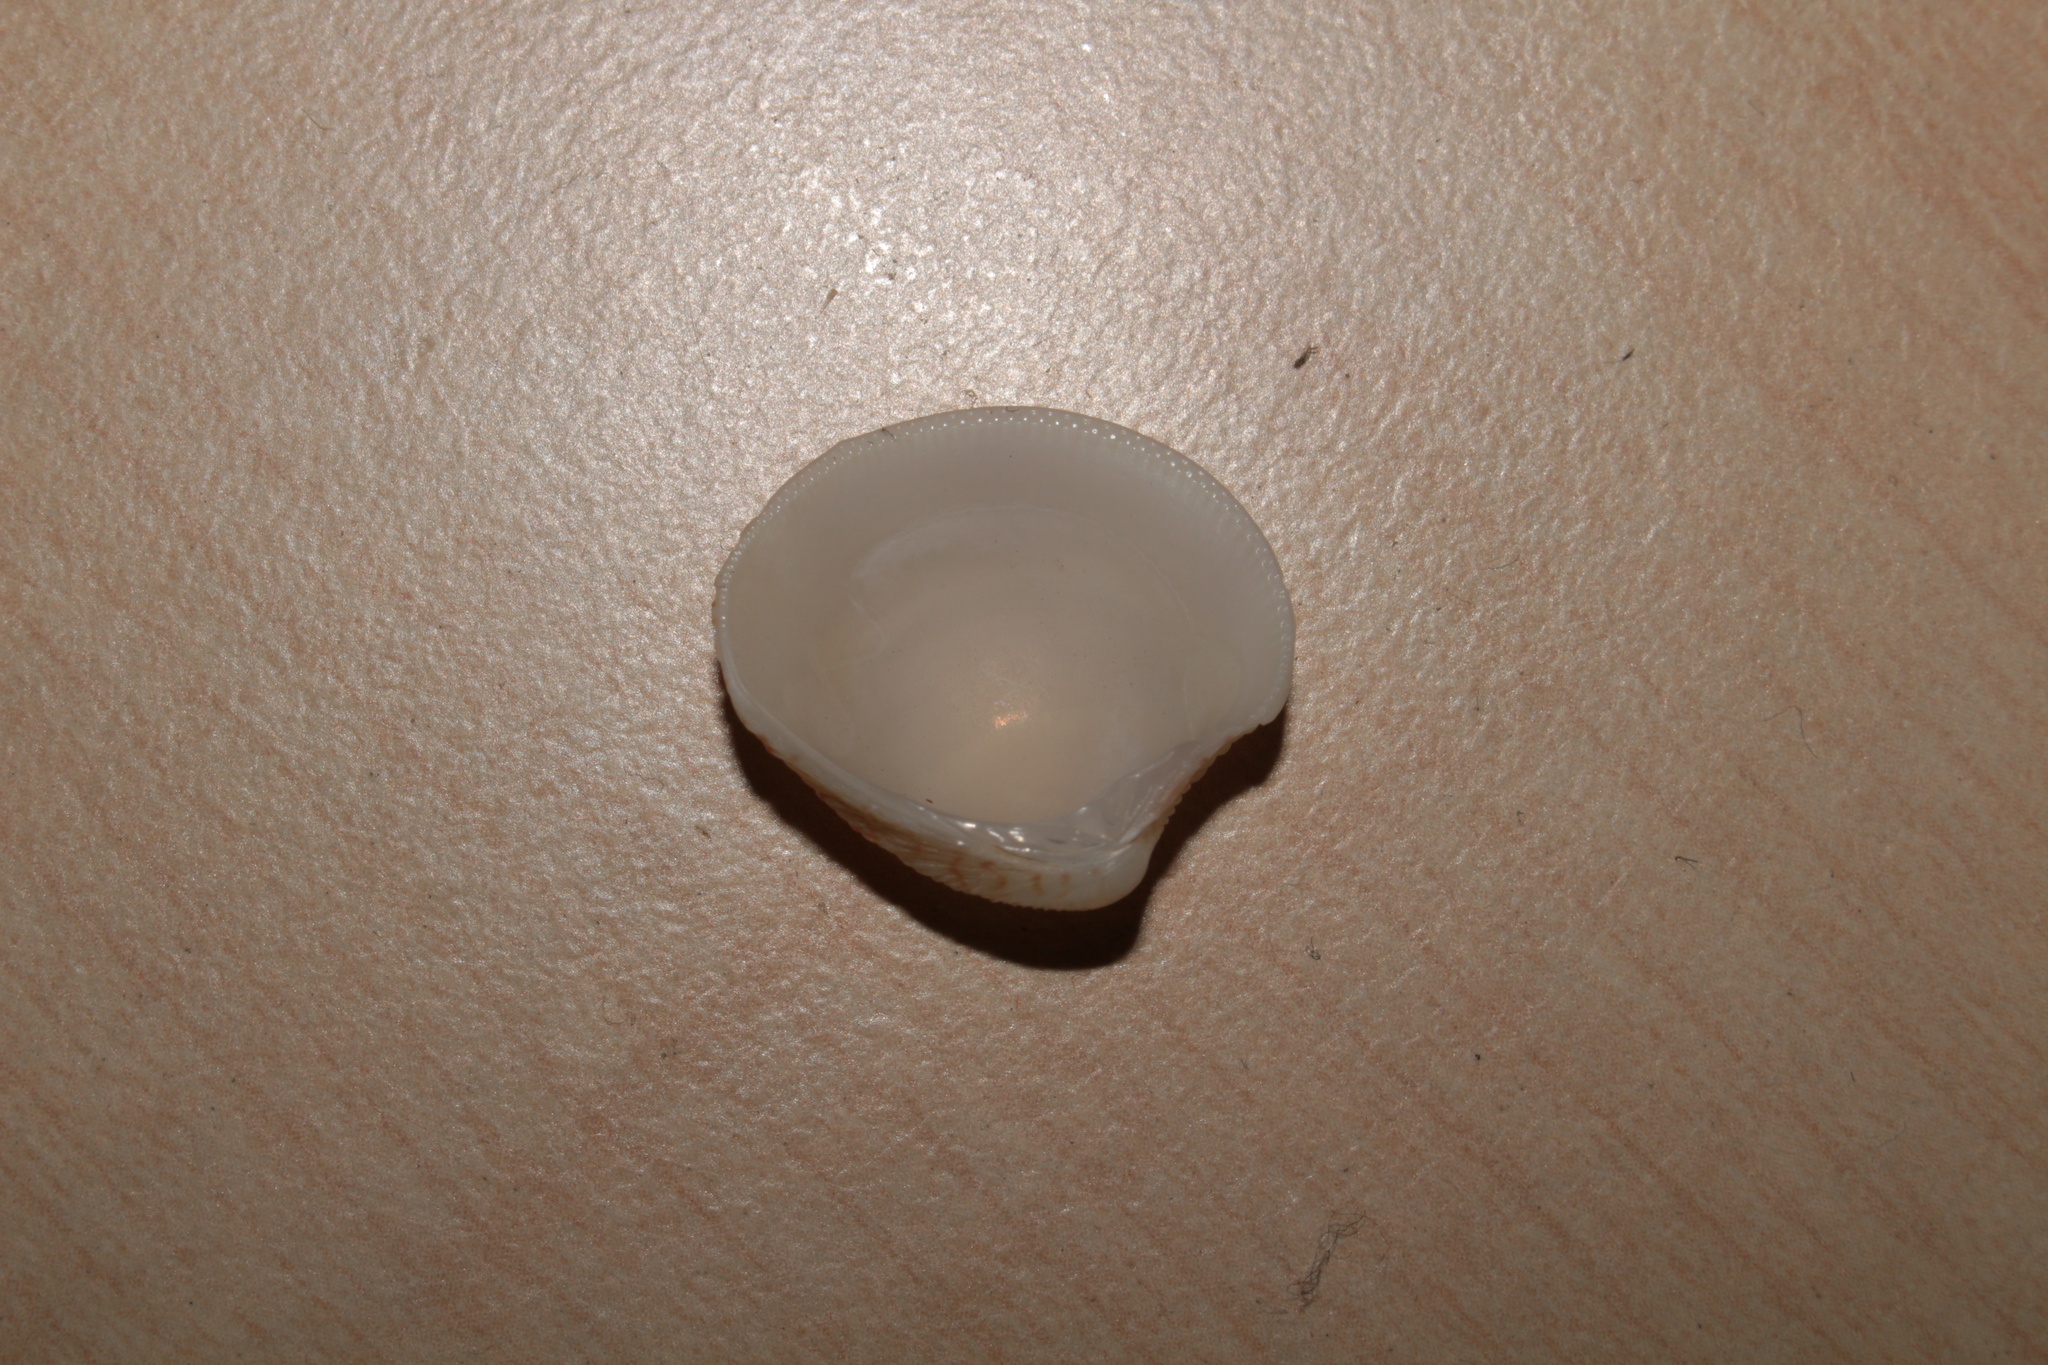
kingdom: Animalia
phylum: Mollusca
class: Bivalvia
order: Venerida
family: Veneridae
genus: Chamelea
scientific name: Chamelea gallina
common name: Chicken venus
